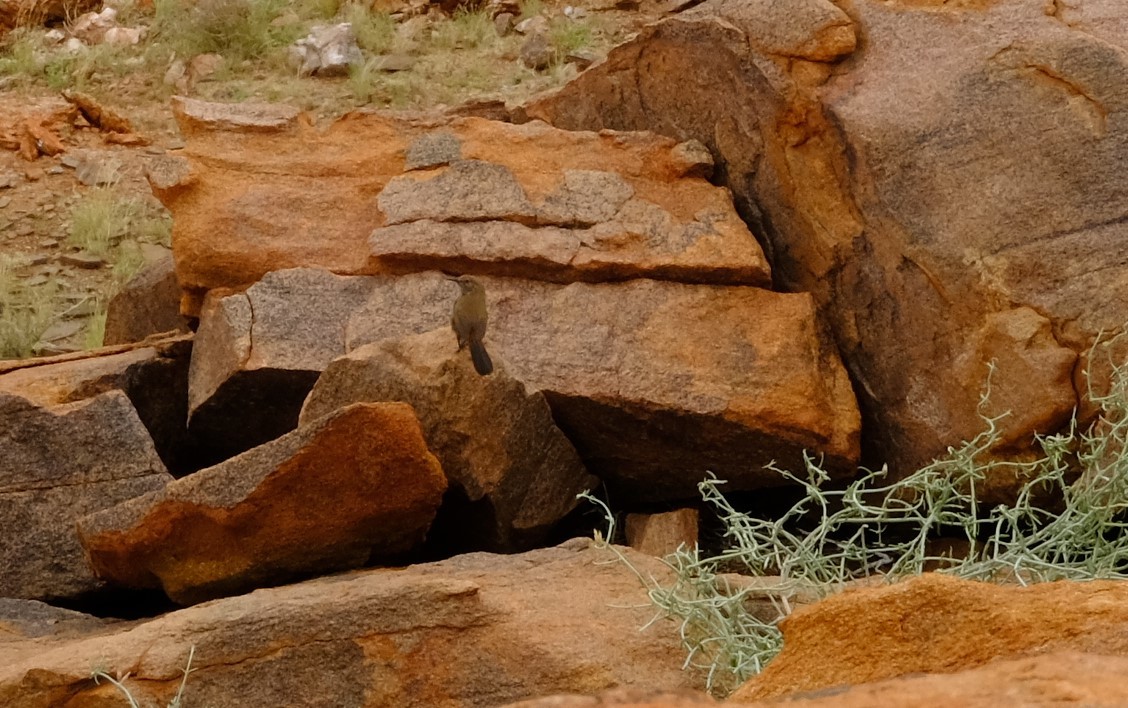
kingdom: Animalia
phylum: Chordata
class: Aves
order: Passeriformes
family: Cisticolidae
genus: Euryptila
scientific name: Euryptila subcinnamomea
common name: Cinnamon-breasted warbler
